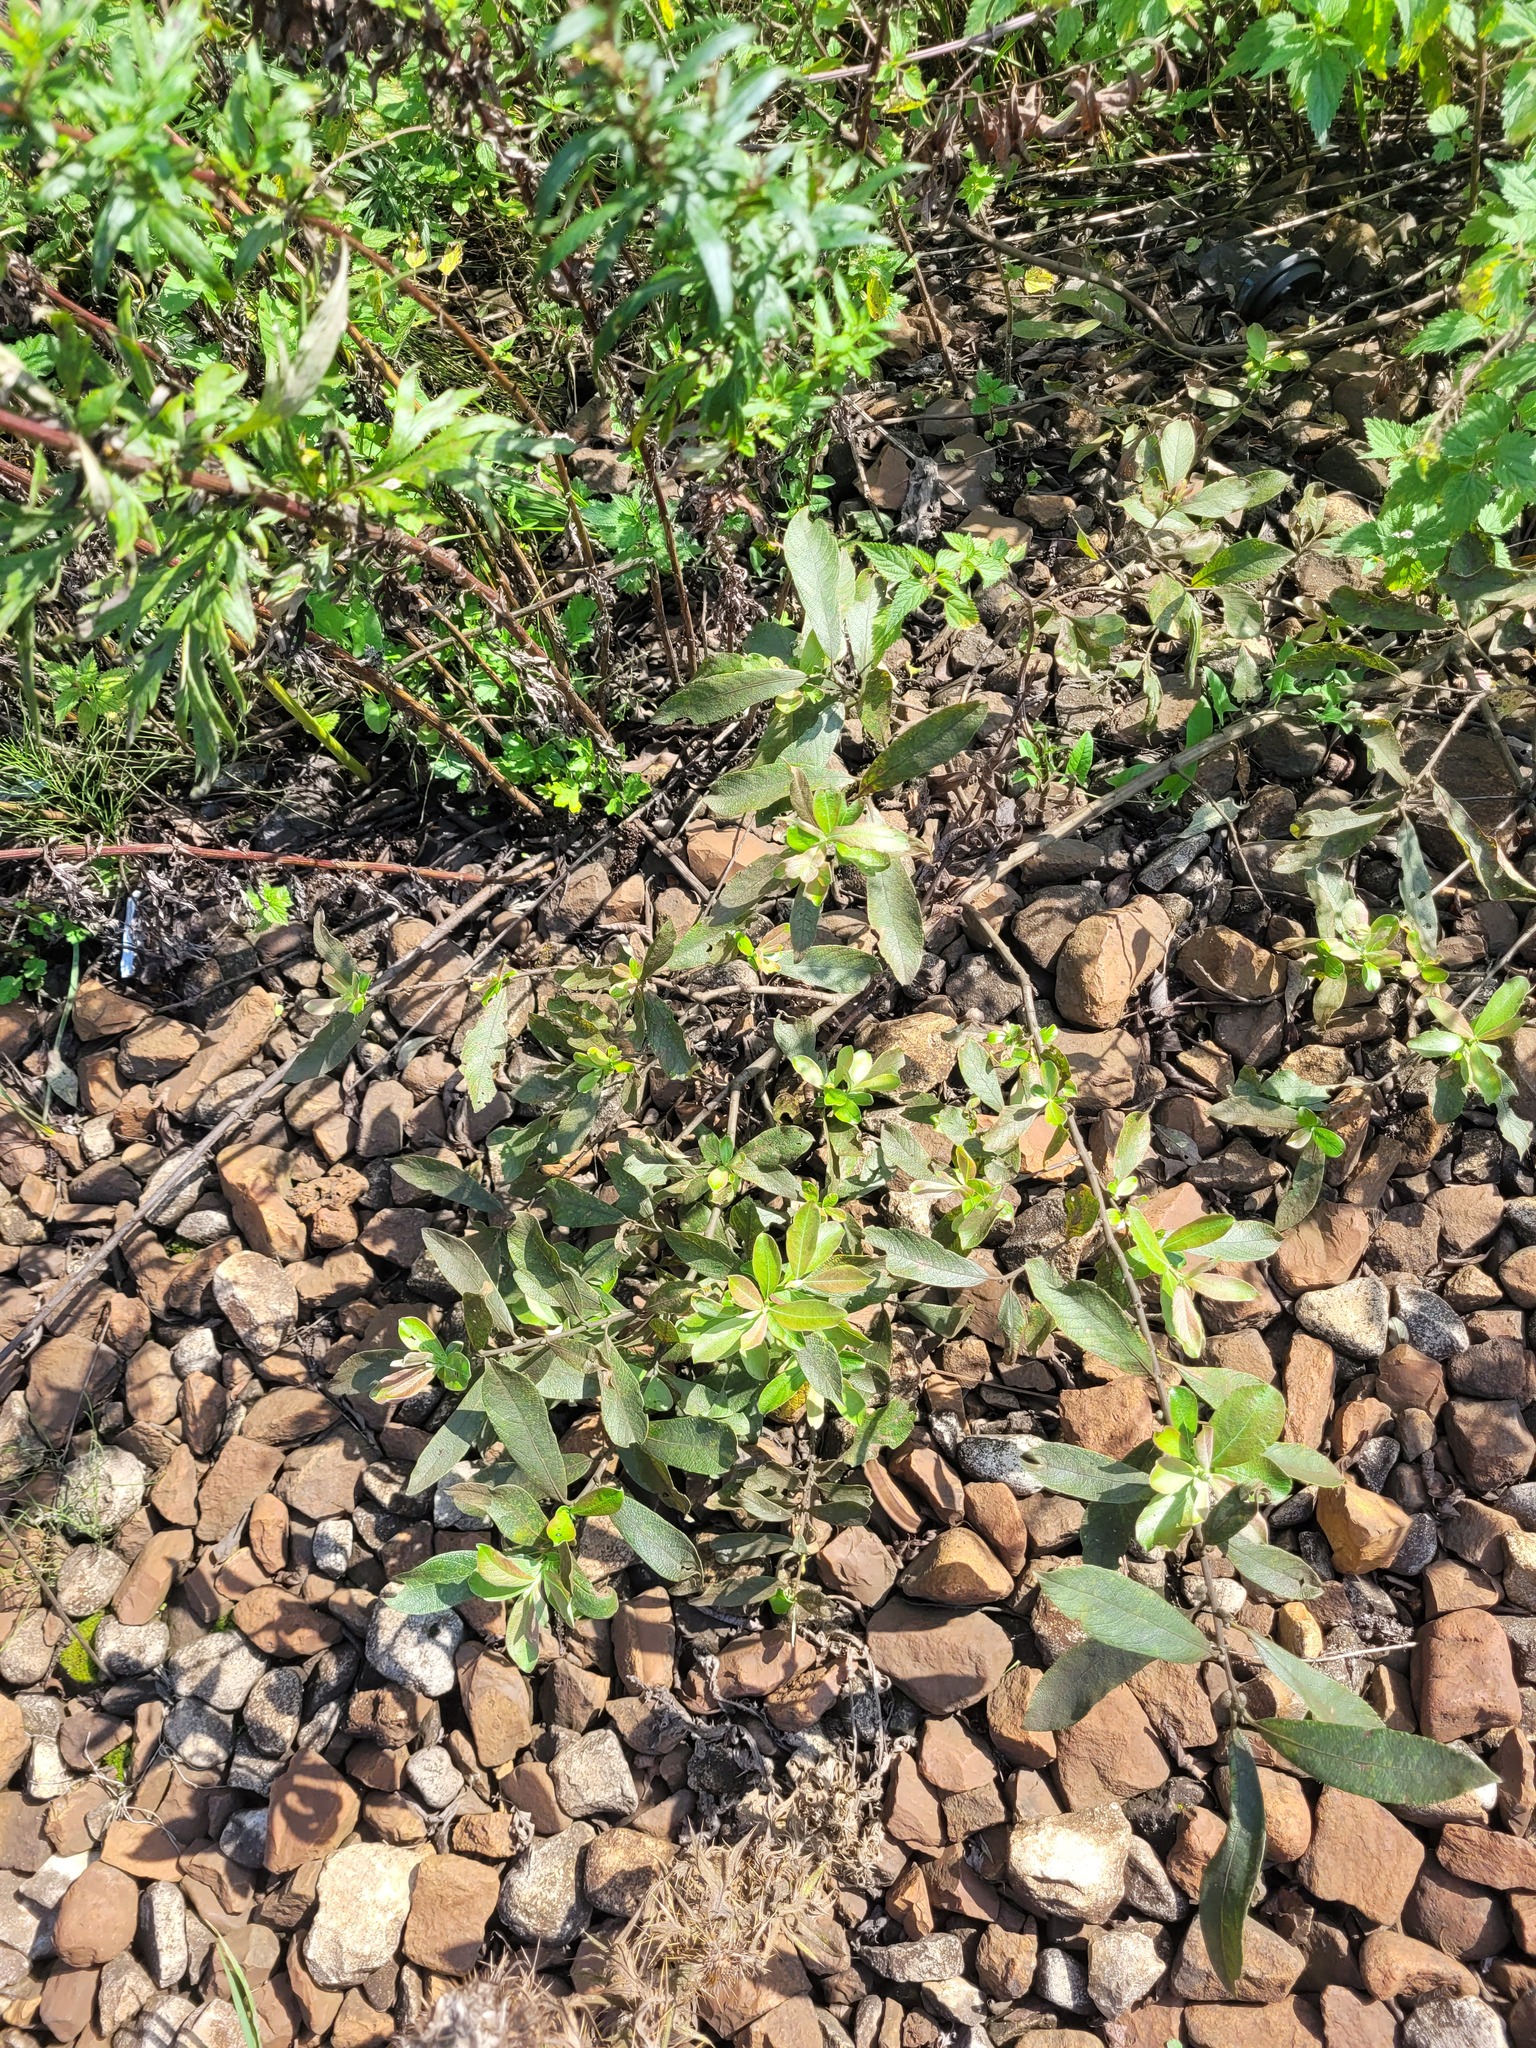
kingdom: Plantae
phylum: Tracheophyta
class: Magnoliopsida
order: Malpighiales
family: Salicaceae
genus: Salix
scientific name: Salix cinerea
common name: Common sallow
